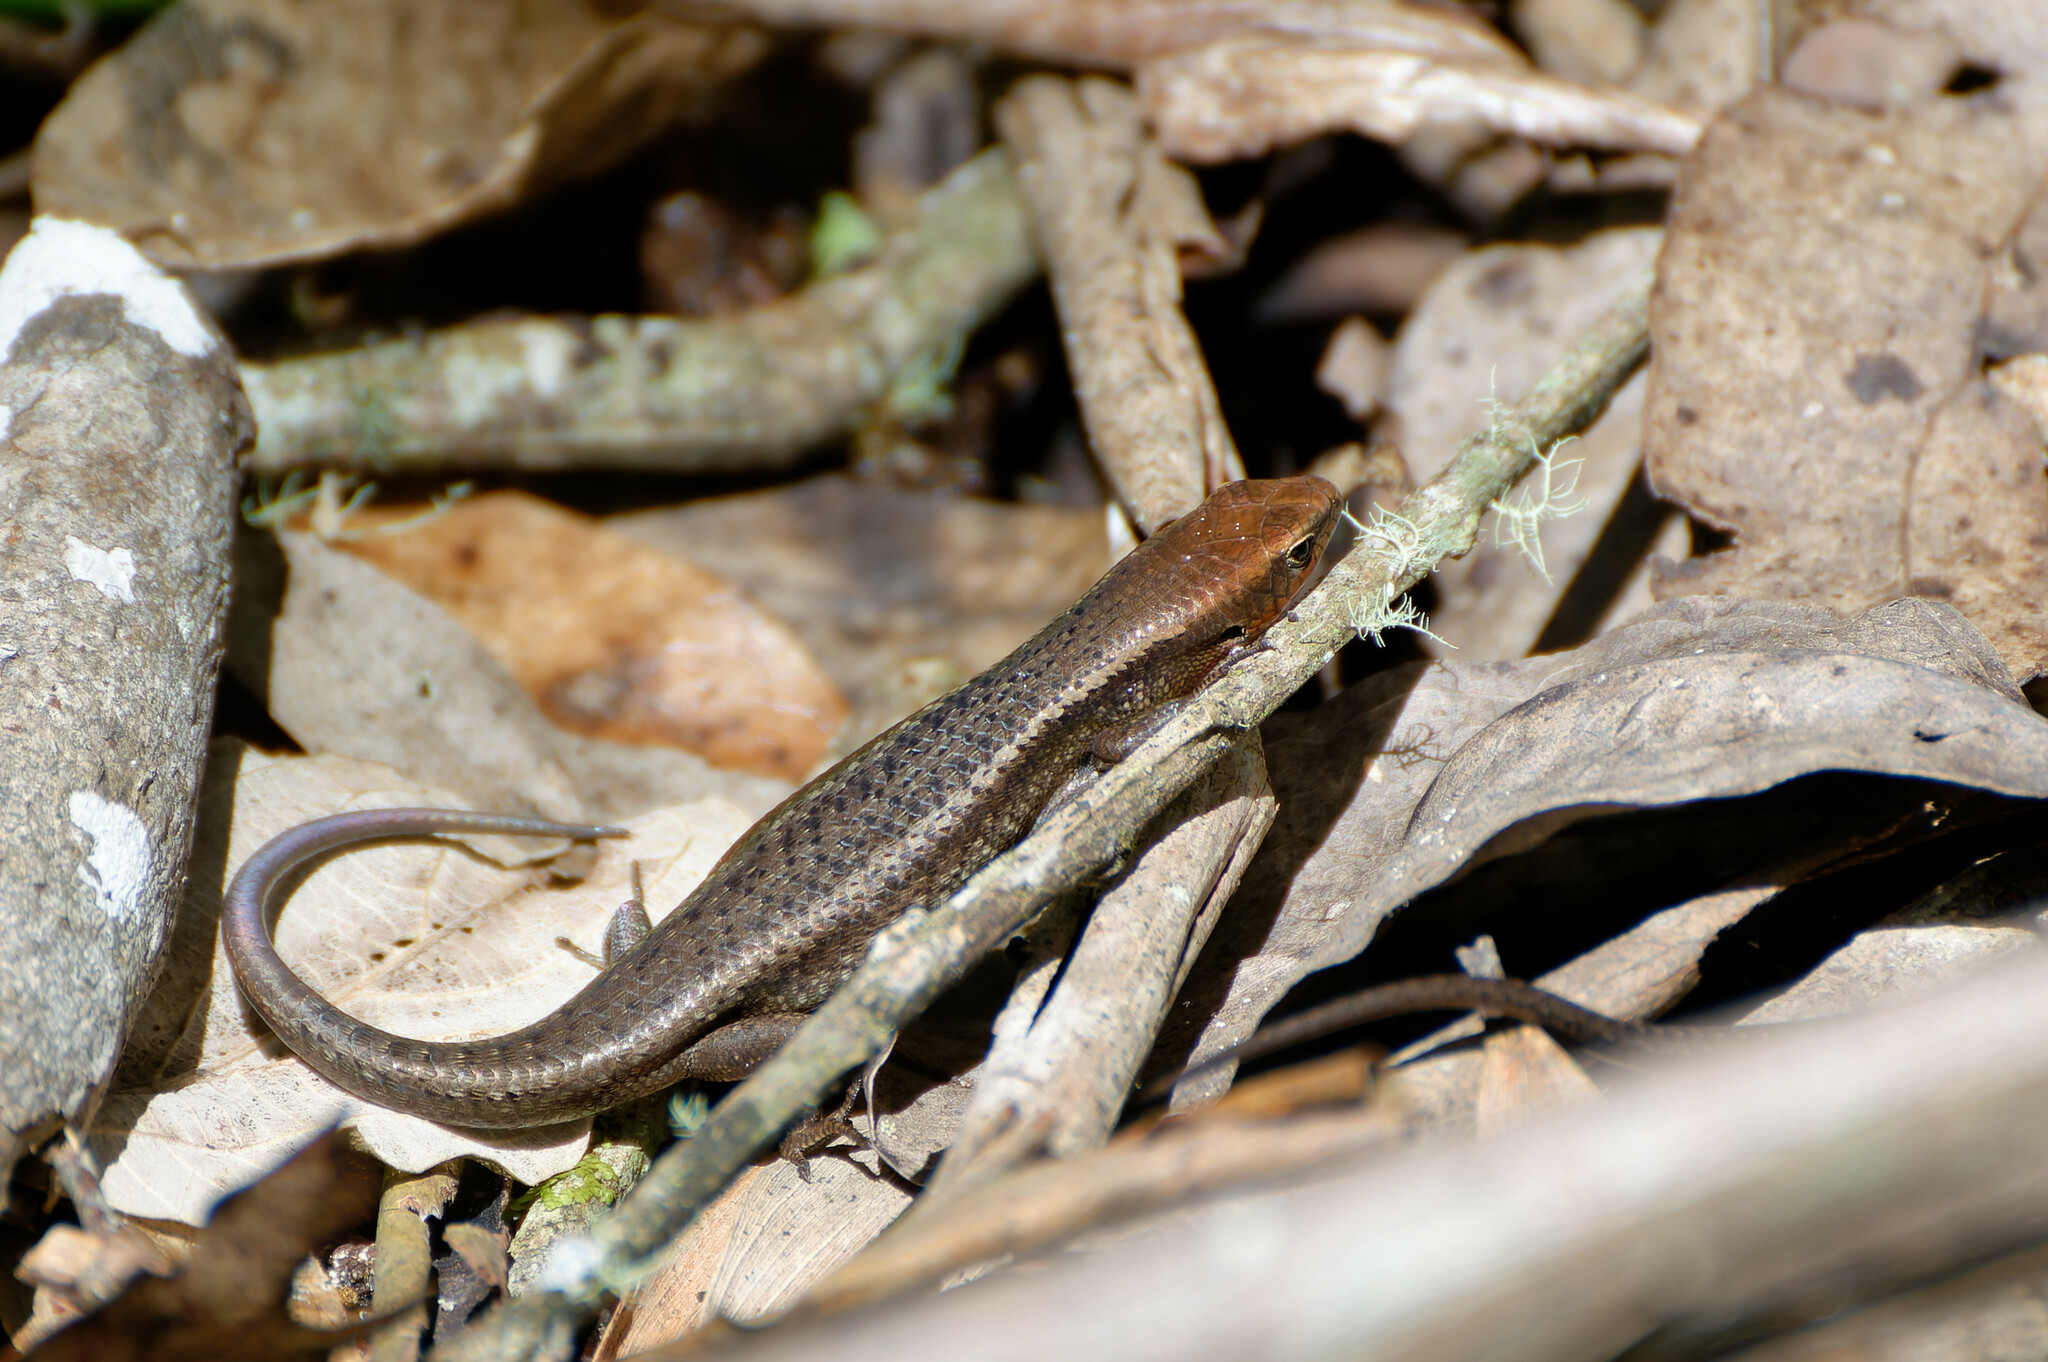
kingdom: Animalia
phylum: Chordata
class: Squamata
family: Scincidae
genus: Carlia
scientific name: Carlia rubrigularis
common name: Northern red-throated skink
